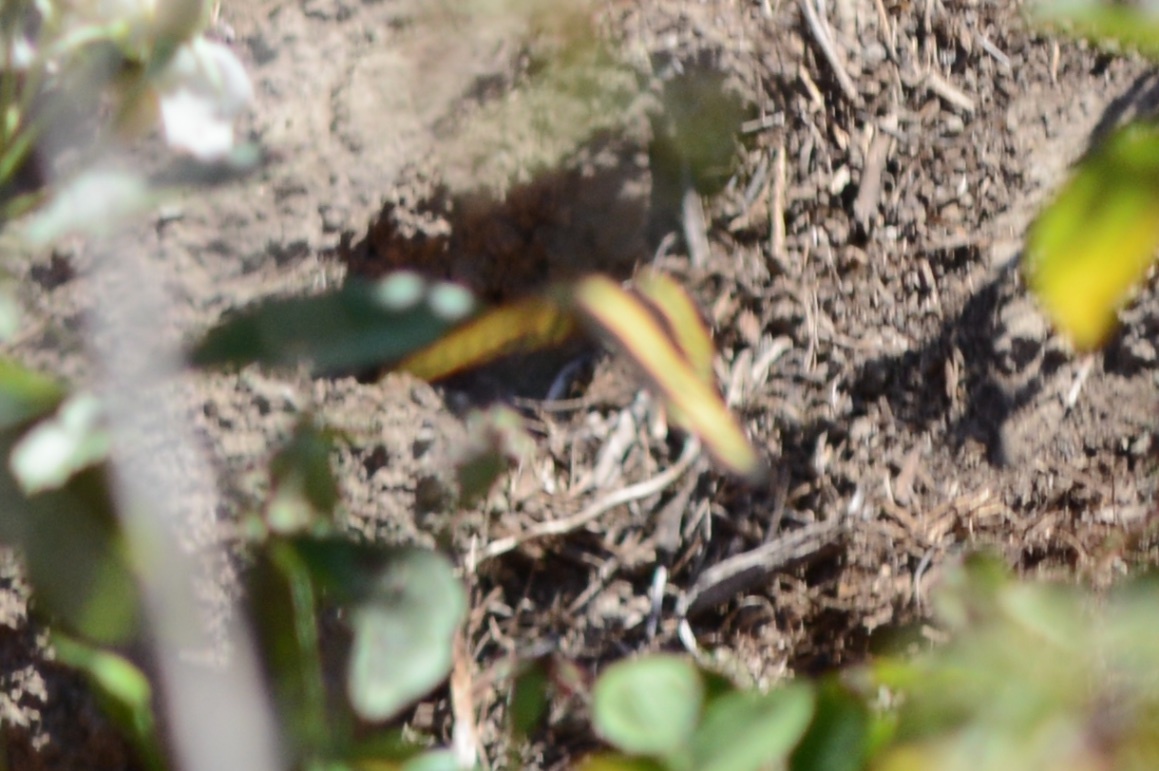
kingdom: Animalia
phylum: Arthropoda
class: Insecta
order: Lepidoptera
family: Papilionidae
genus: Papilio
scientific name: Papilio rumiko
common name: Western giant swallowtail
